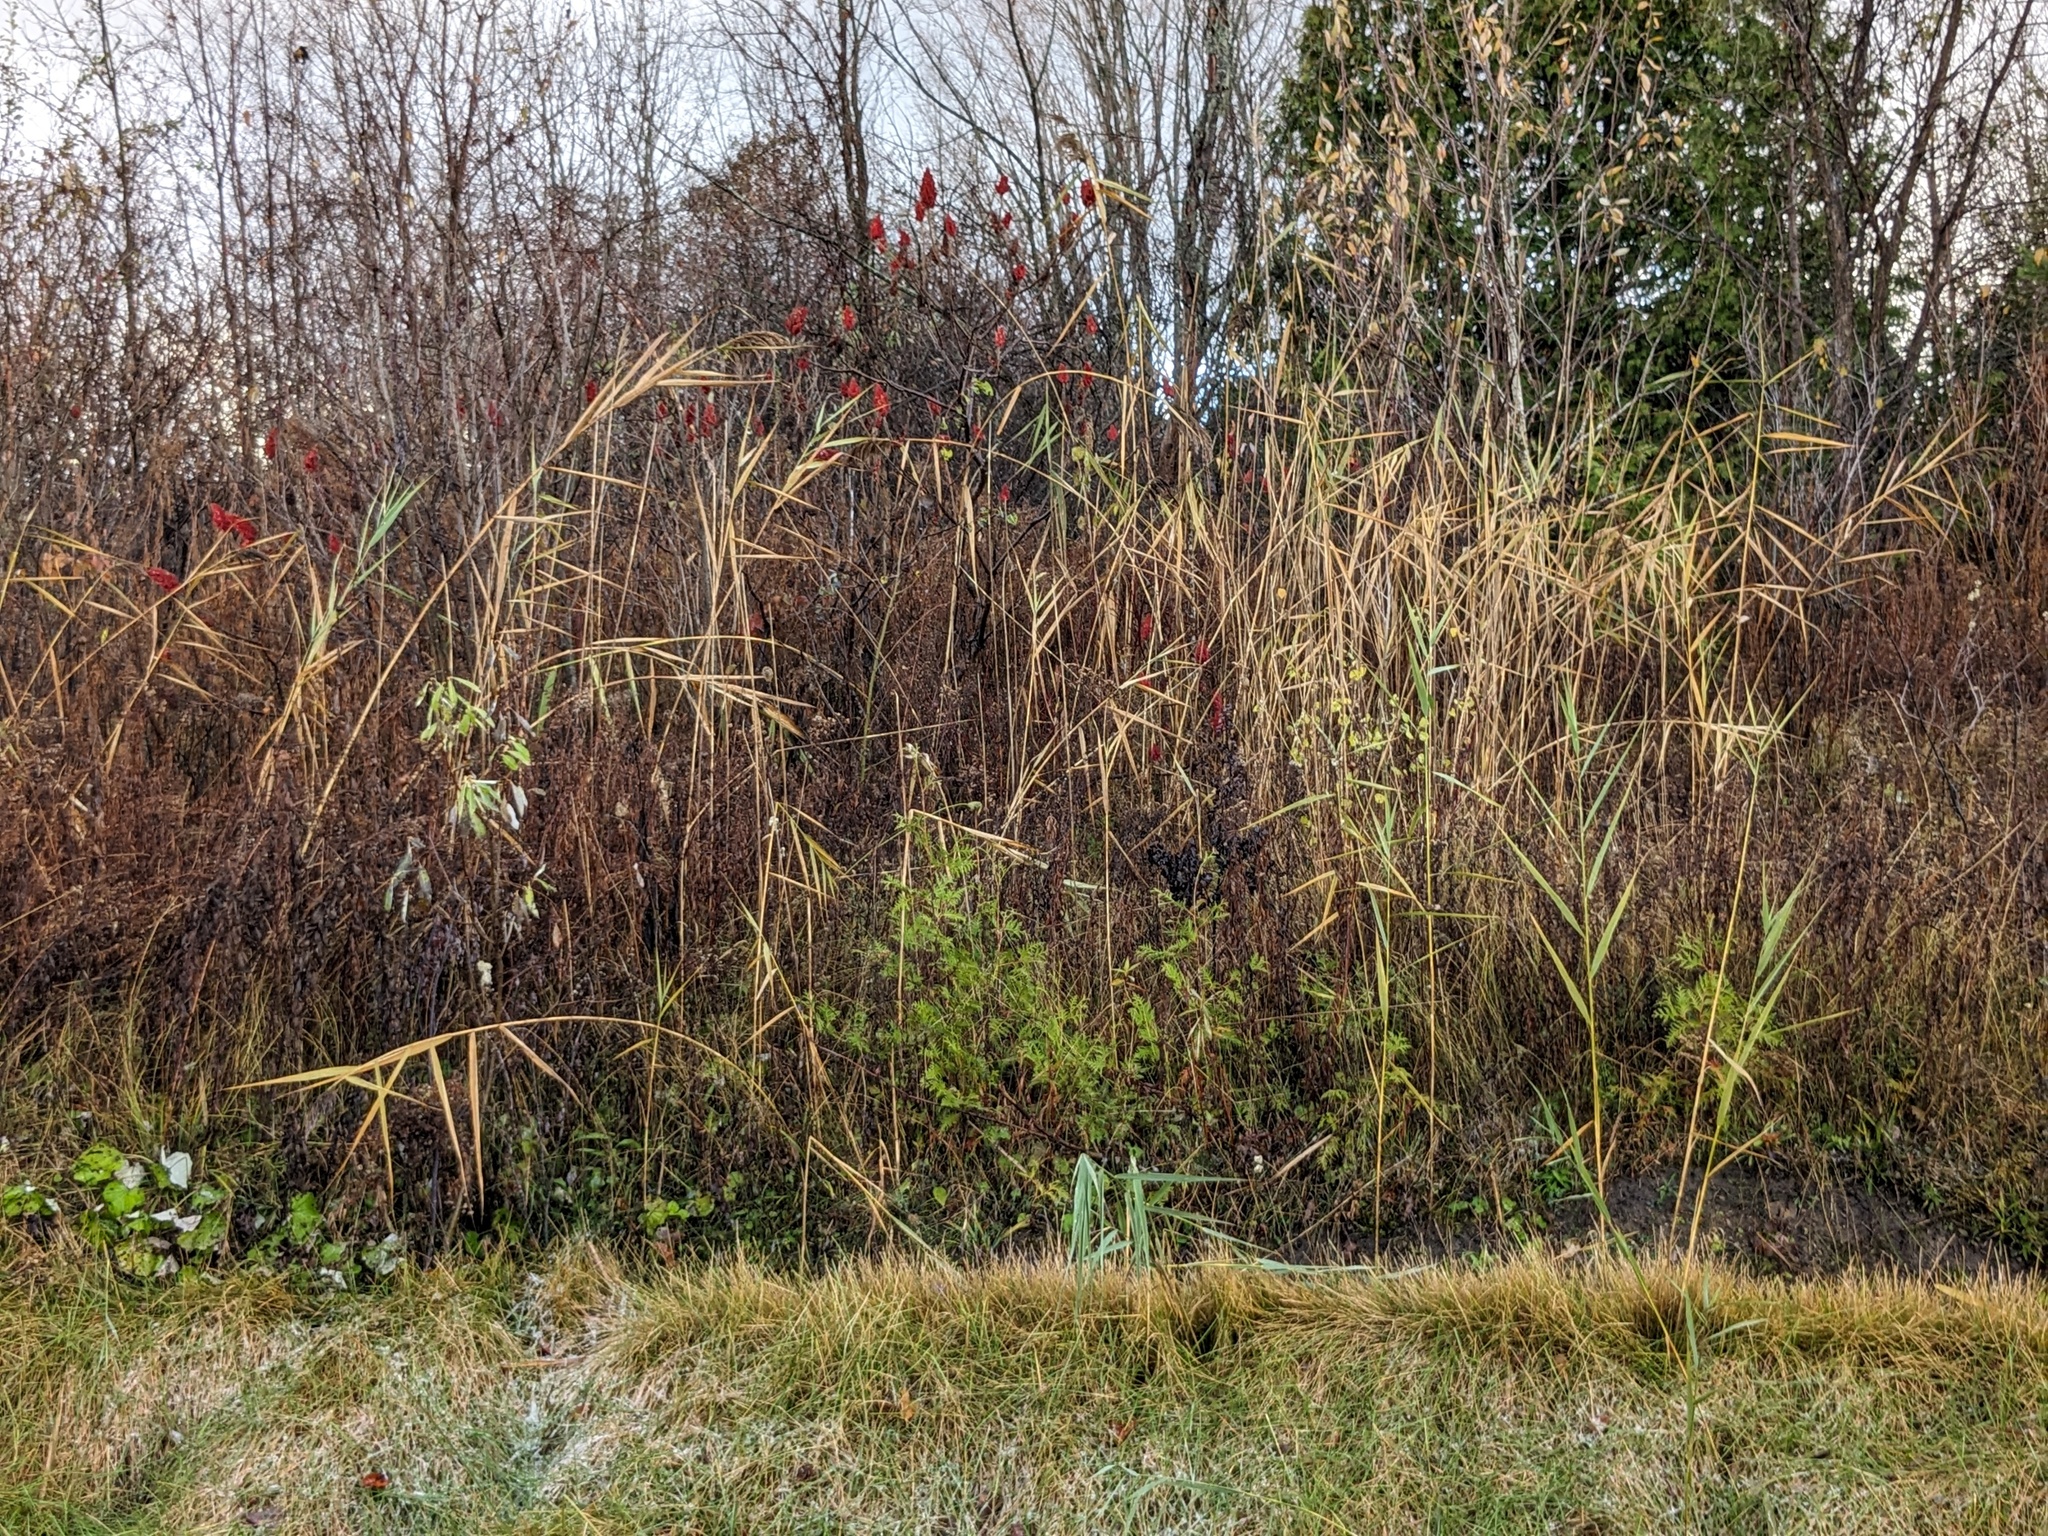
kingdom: Plantae
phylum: Tracheophyta
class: Liliopsida
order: Poales
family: Poaceae
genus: Phragmites
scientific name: Phragmites australis
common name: Common reed
